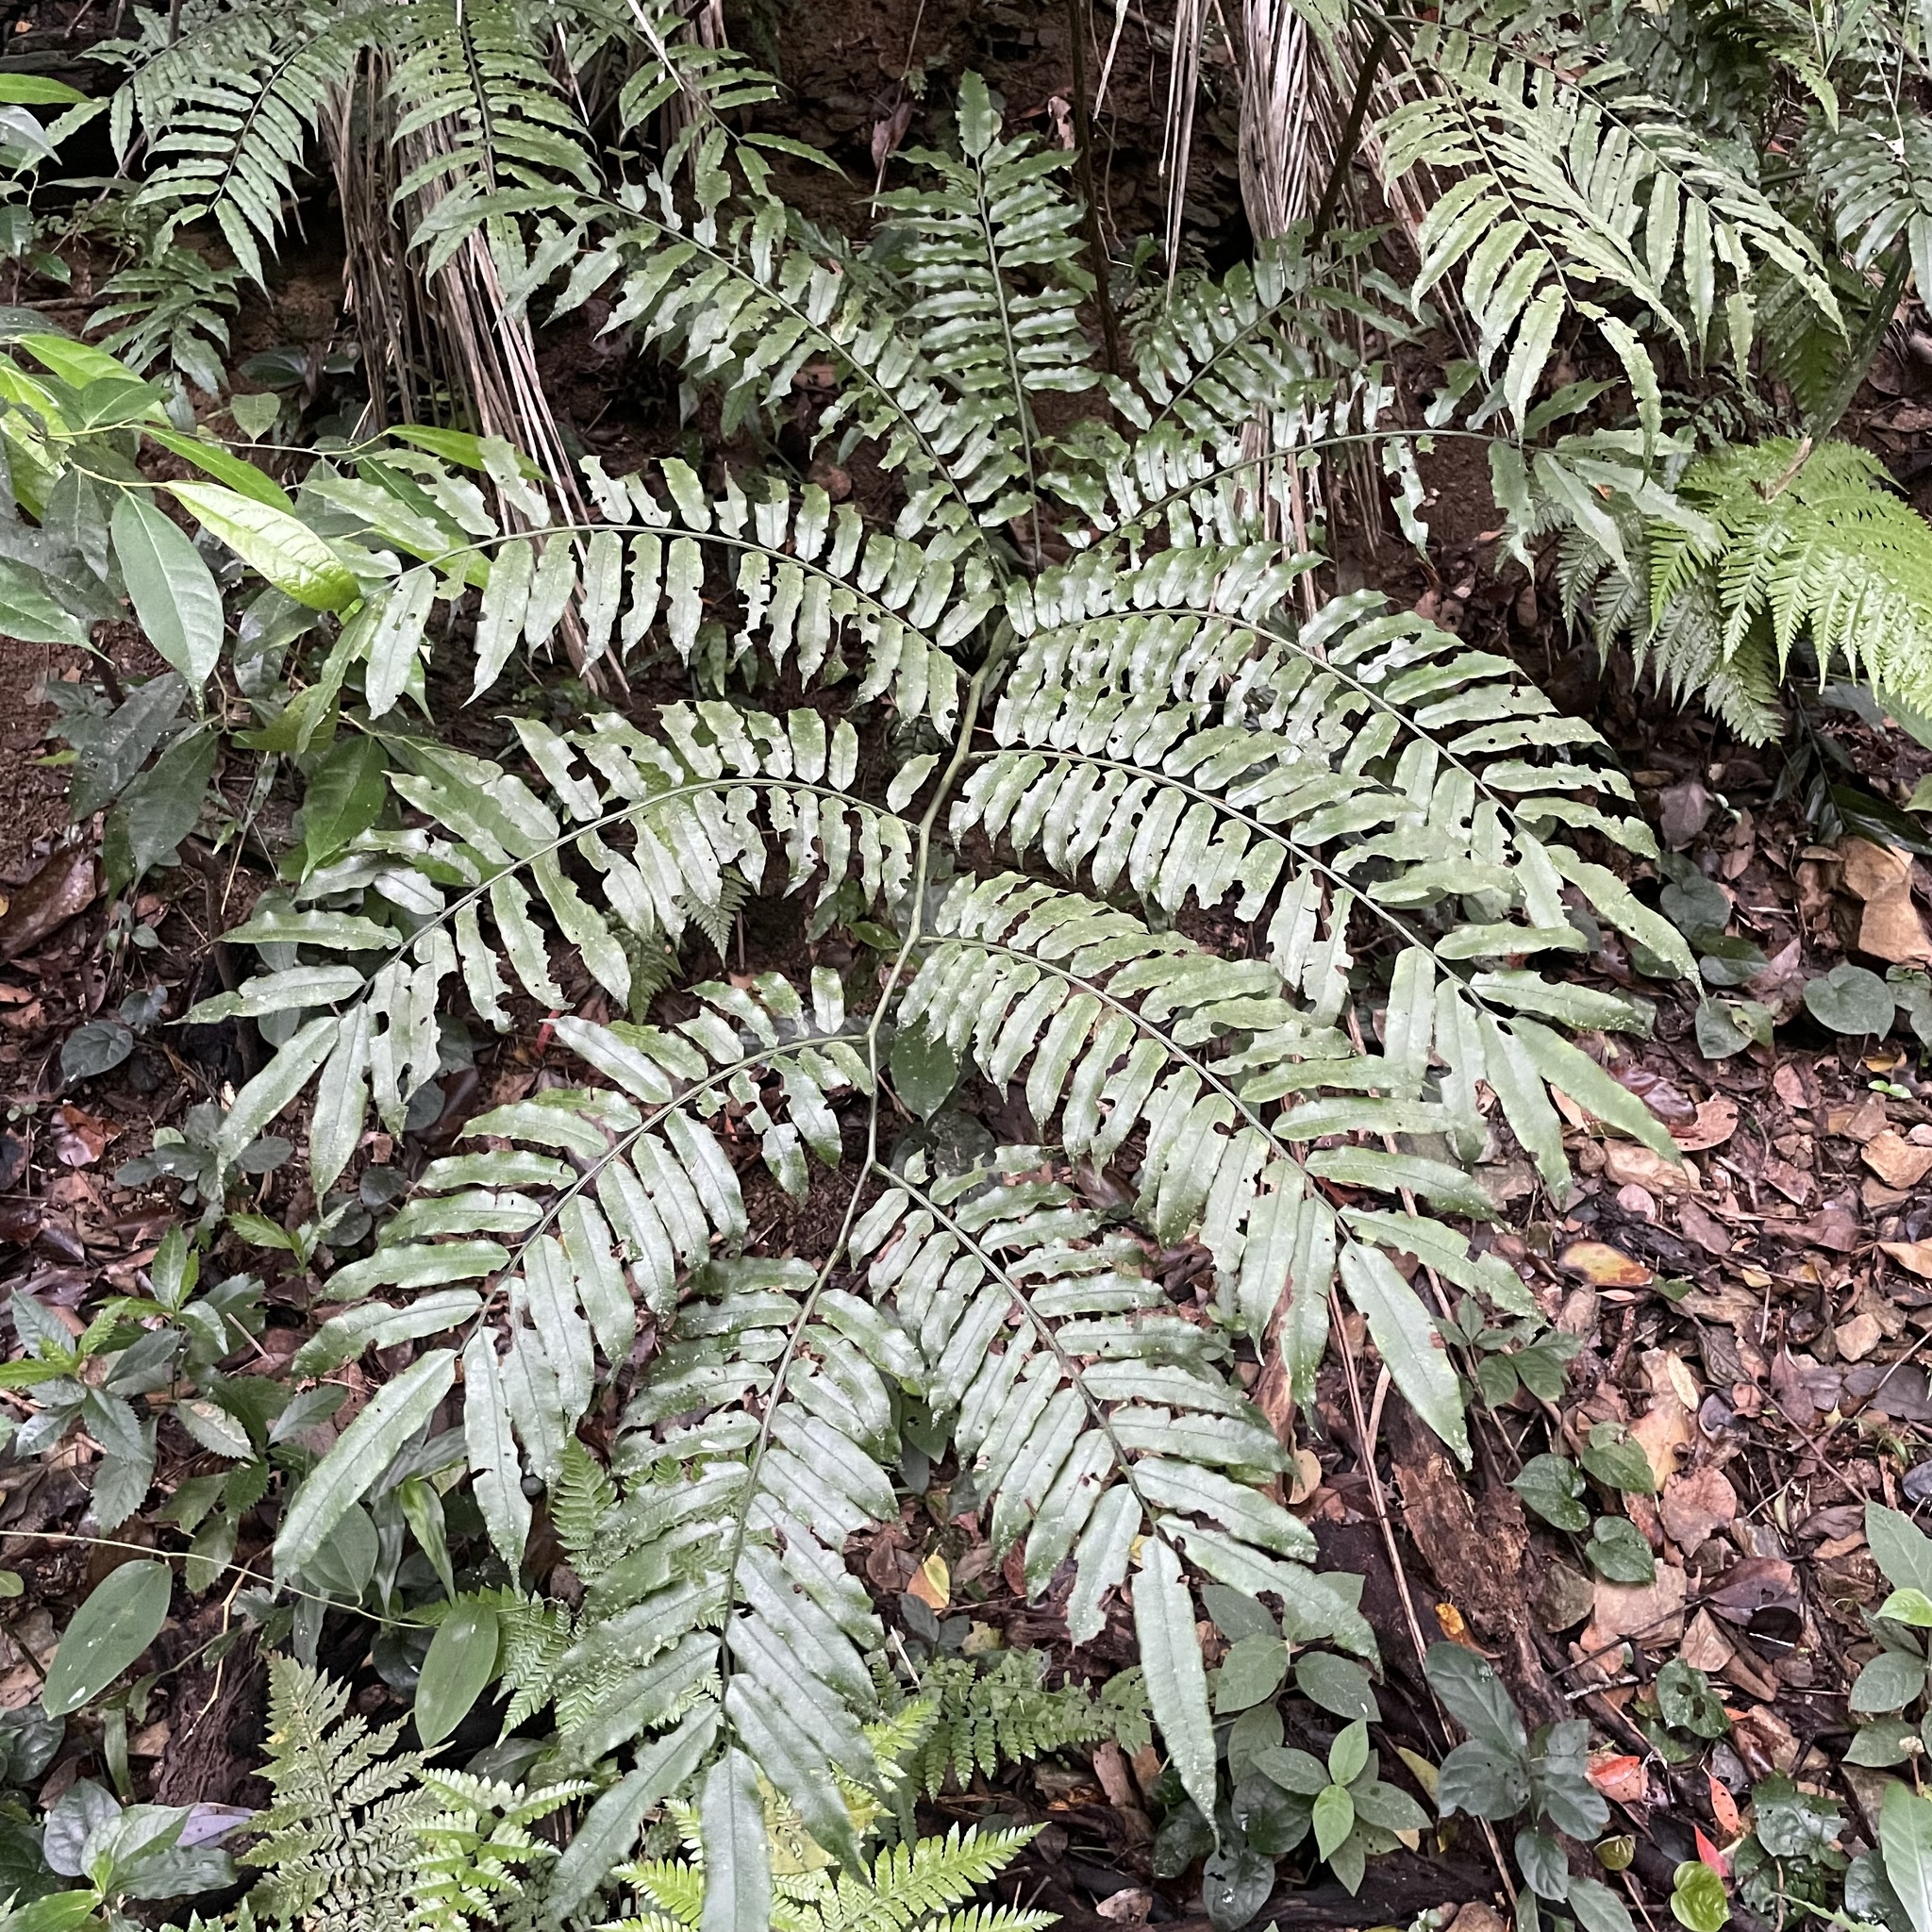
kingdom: Plantae
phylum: Tracheophyta
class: Polypodiopsida
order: Marattiales
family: Marattiaceae
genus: Angiopteris
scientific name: Angiopteris lygodiifolia
